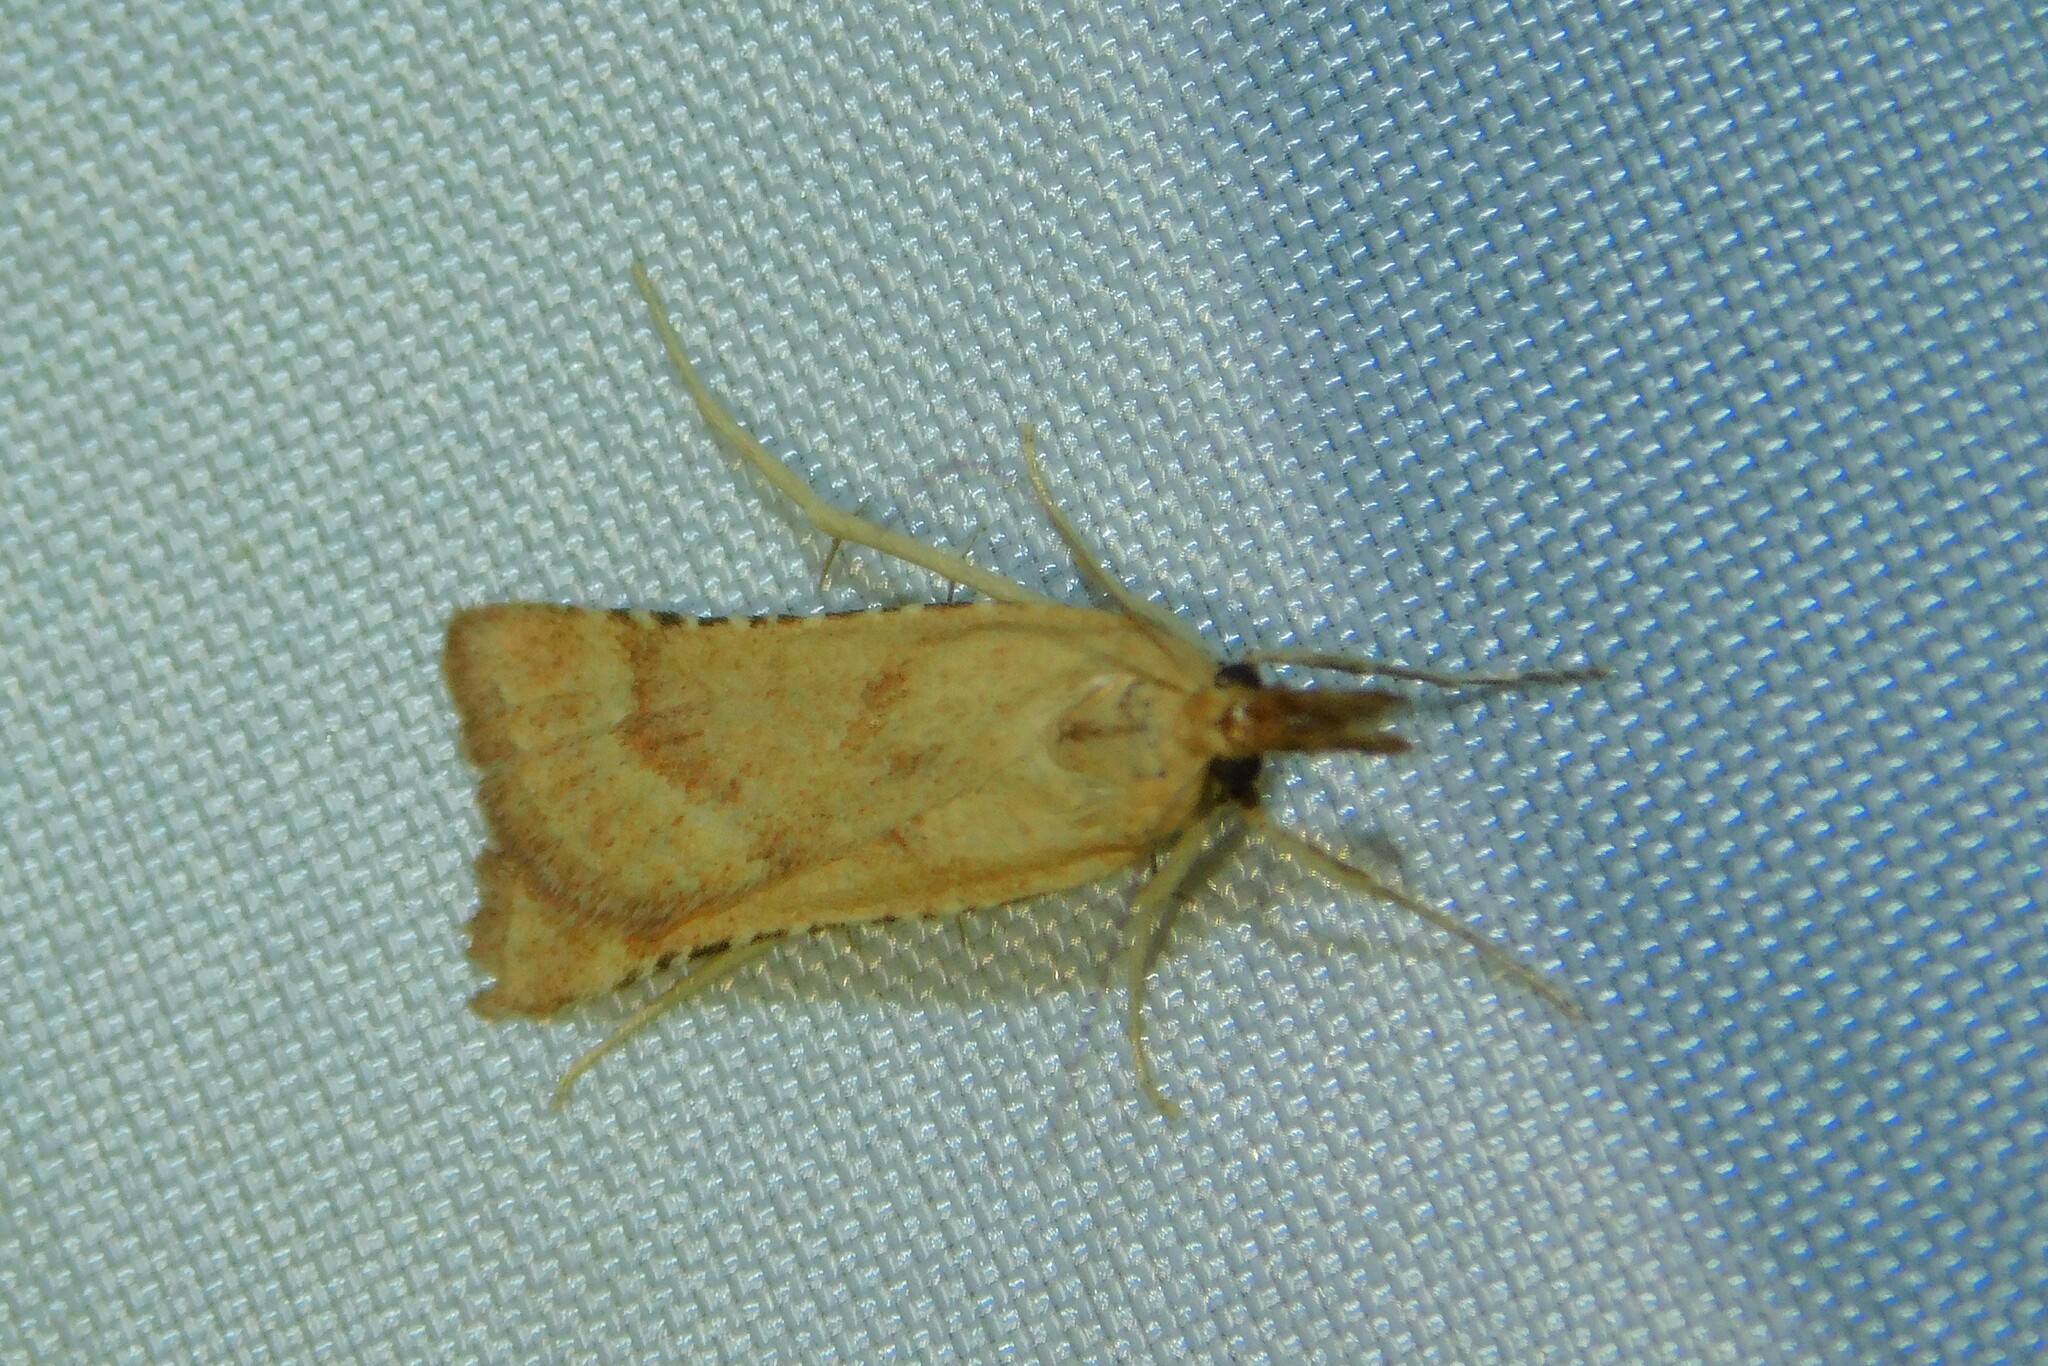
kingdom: Animalia
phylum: Arthropoda
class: Insecta
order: Lepidoptera
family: Pyralidae
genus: Synaphe
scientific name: Synaphe punctalis
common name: Long-legged tabby
